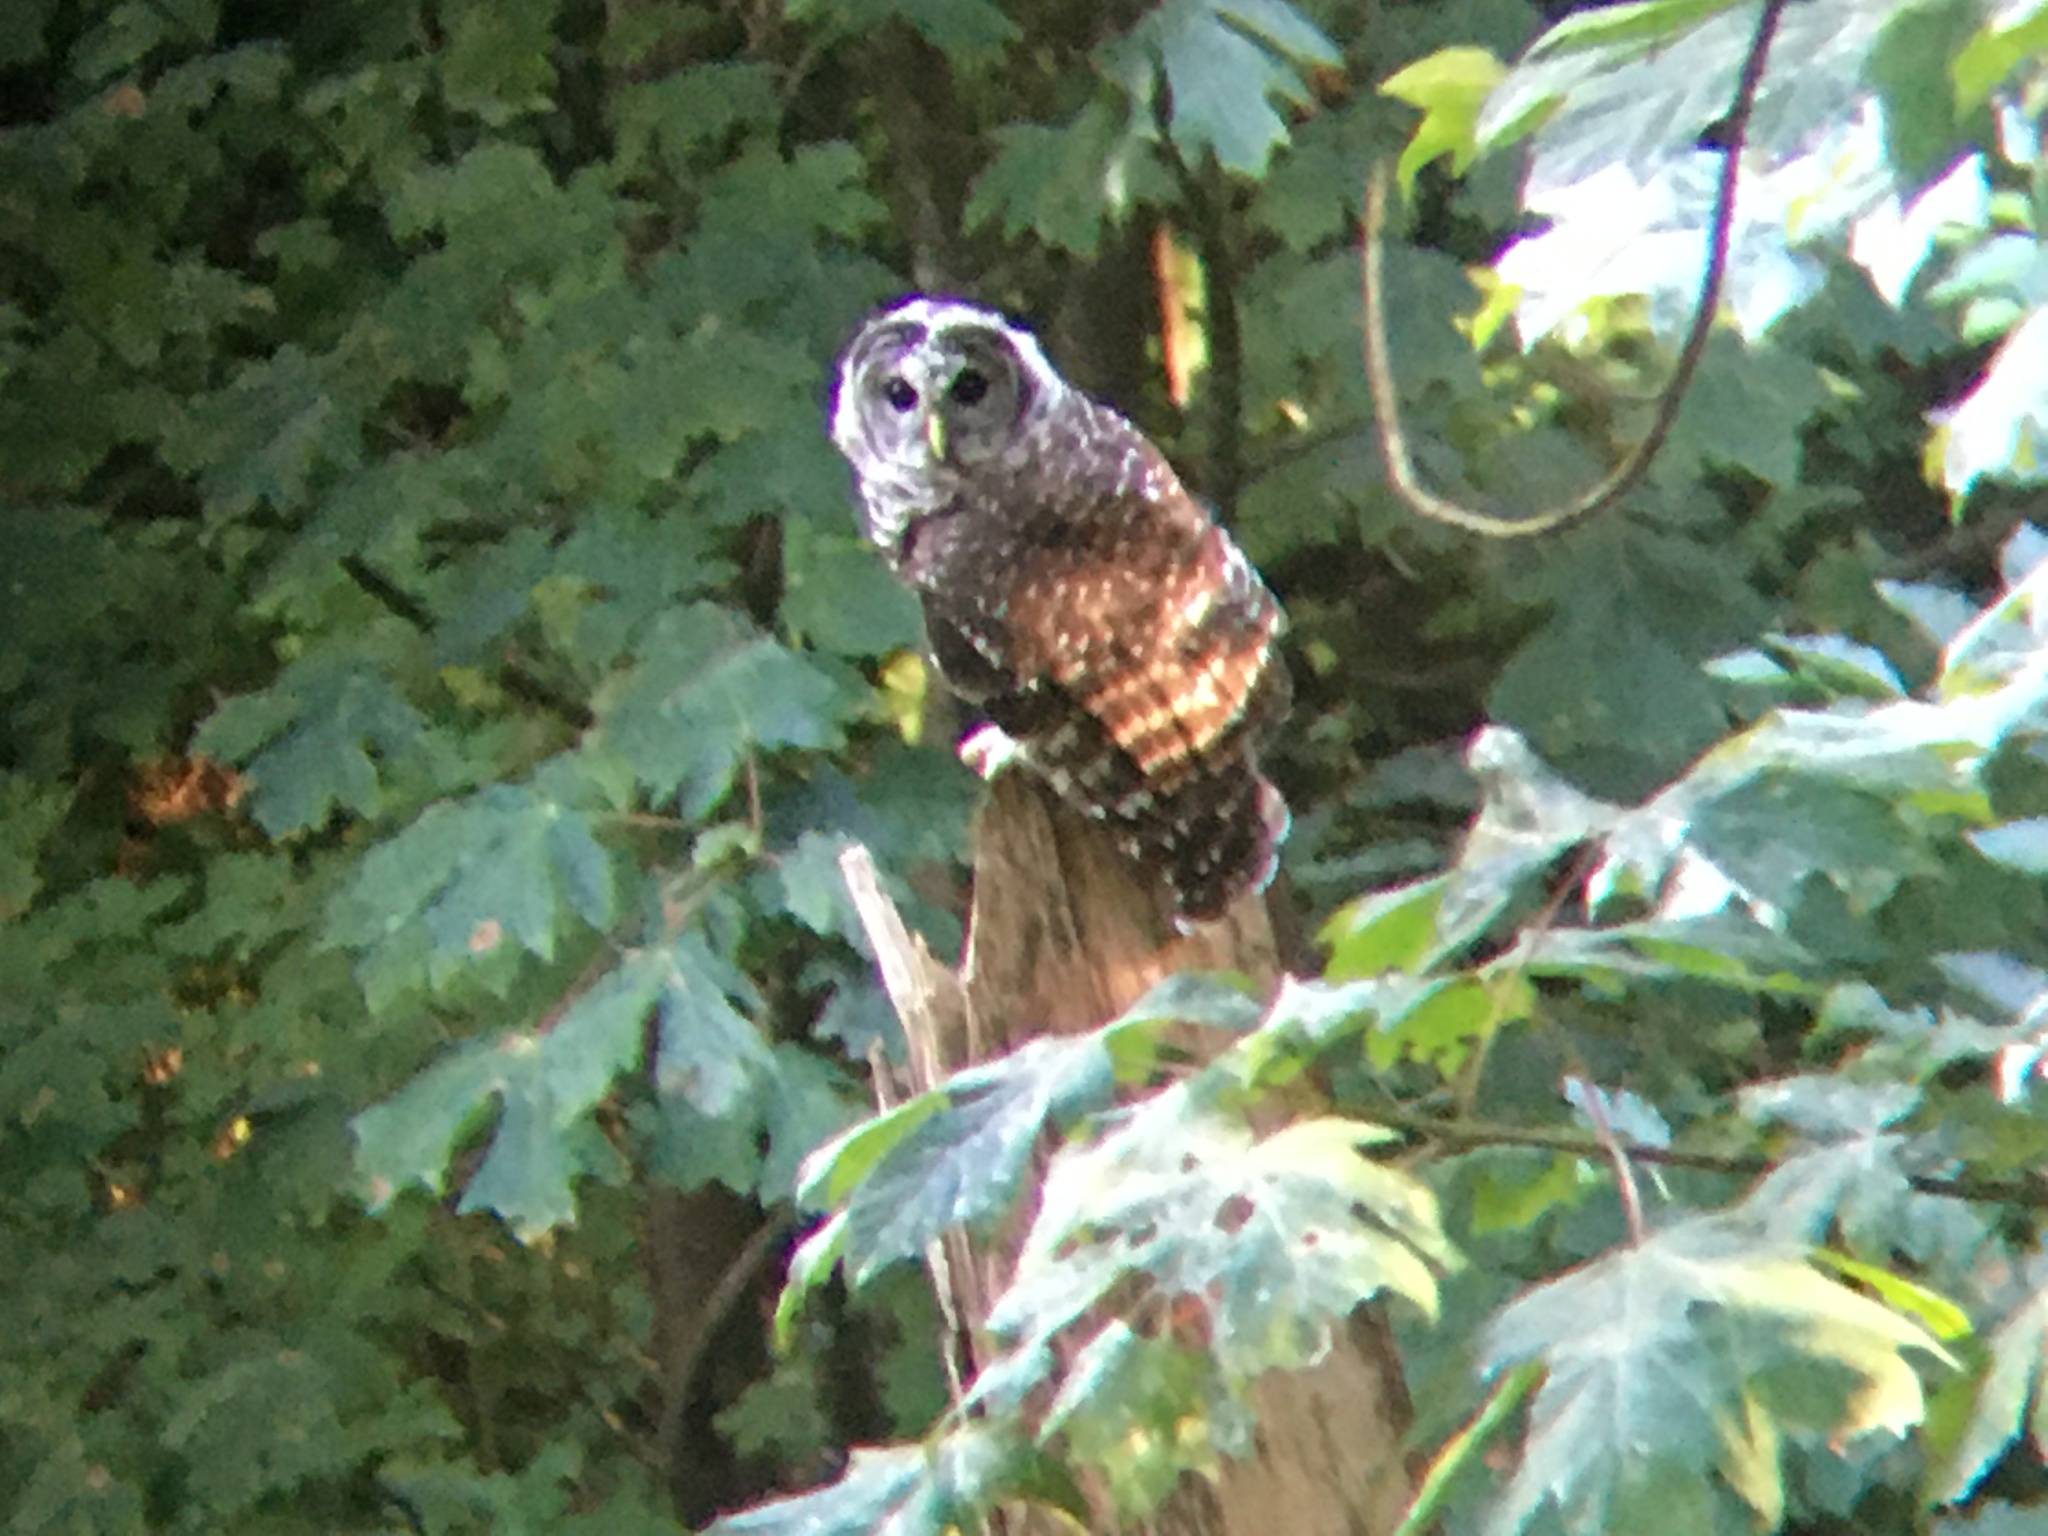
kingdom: Animalia
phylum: Chordata
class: Aves
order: Strigiformes
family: Strigidae
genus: Strix
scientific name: Strix varia
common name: Barred owl
